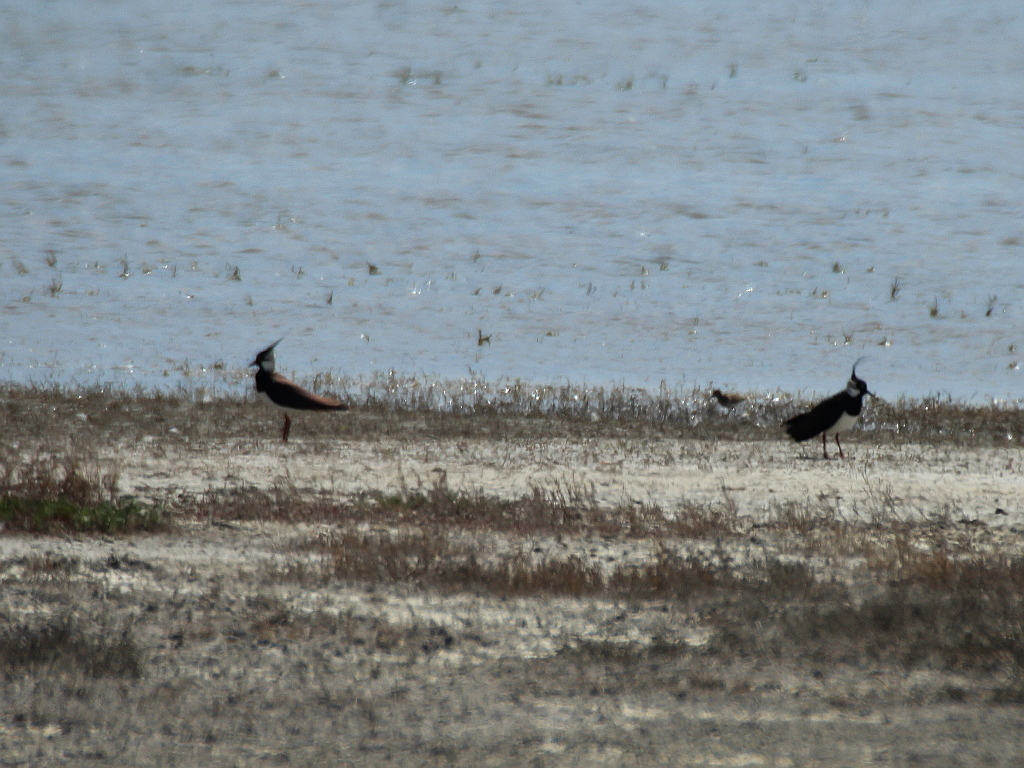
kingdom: Animalia
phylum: Chordata
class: Aves
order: Charadriiformes
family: Charadriidae
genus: Vanellus
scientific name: Vanellus vanellus
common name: Northern lapwing
